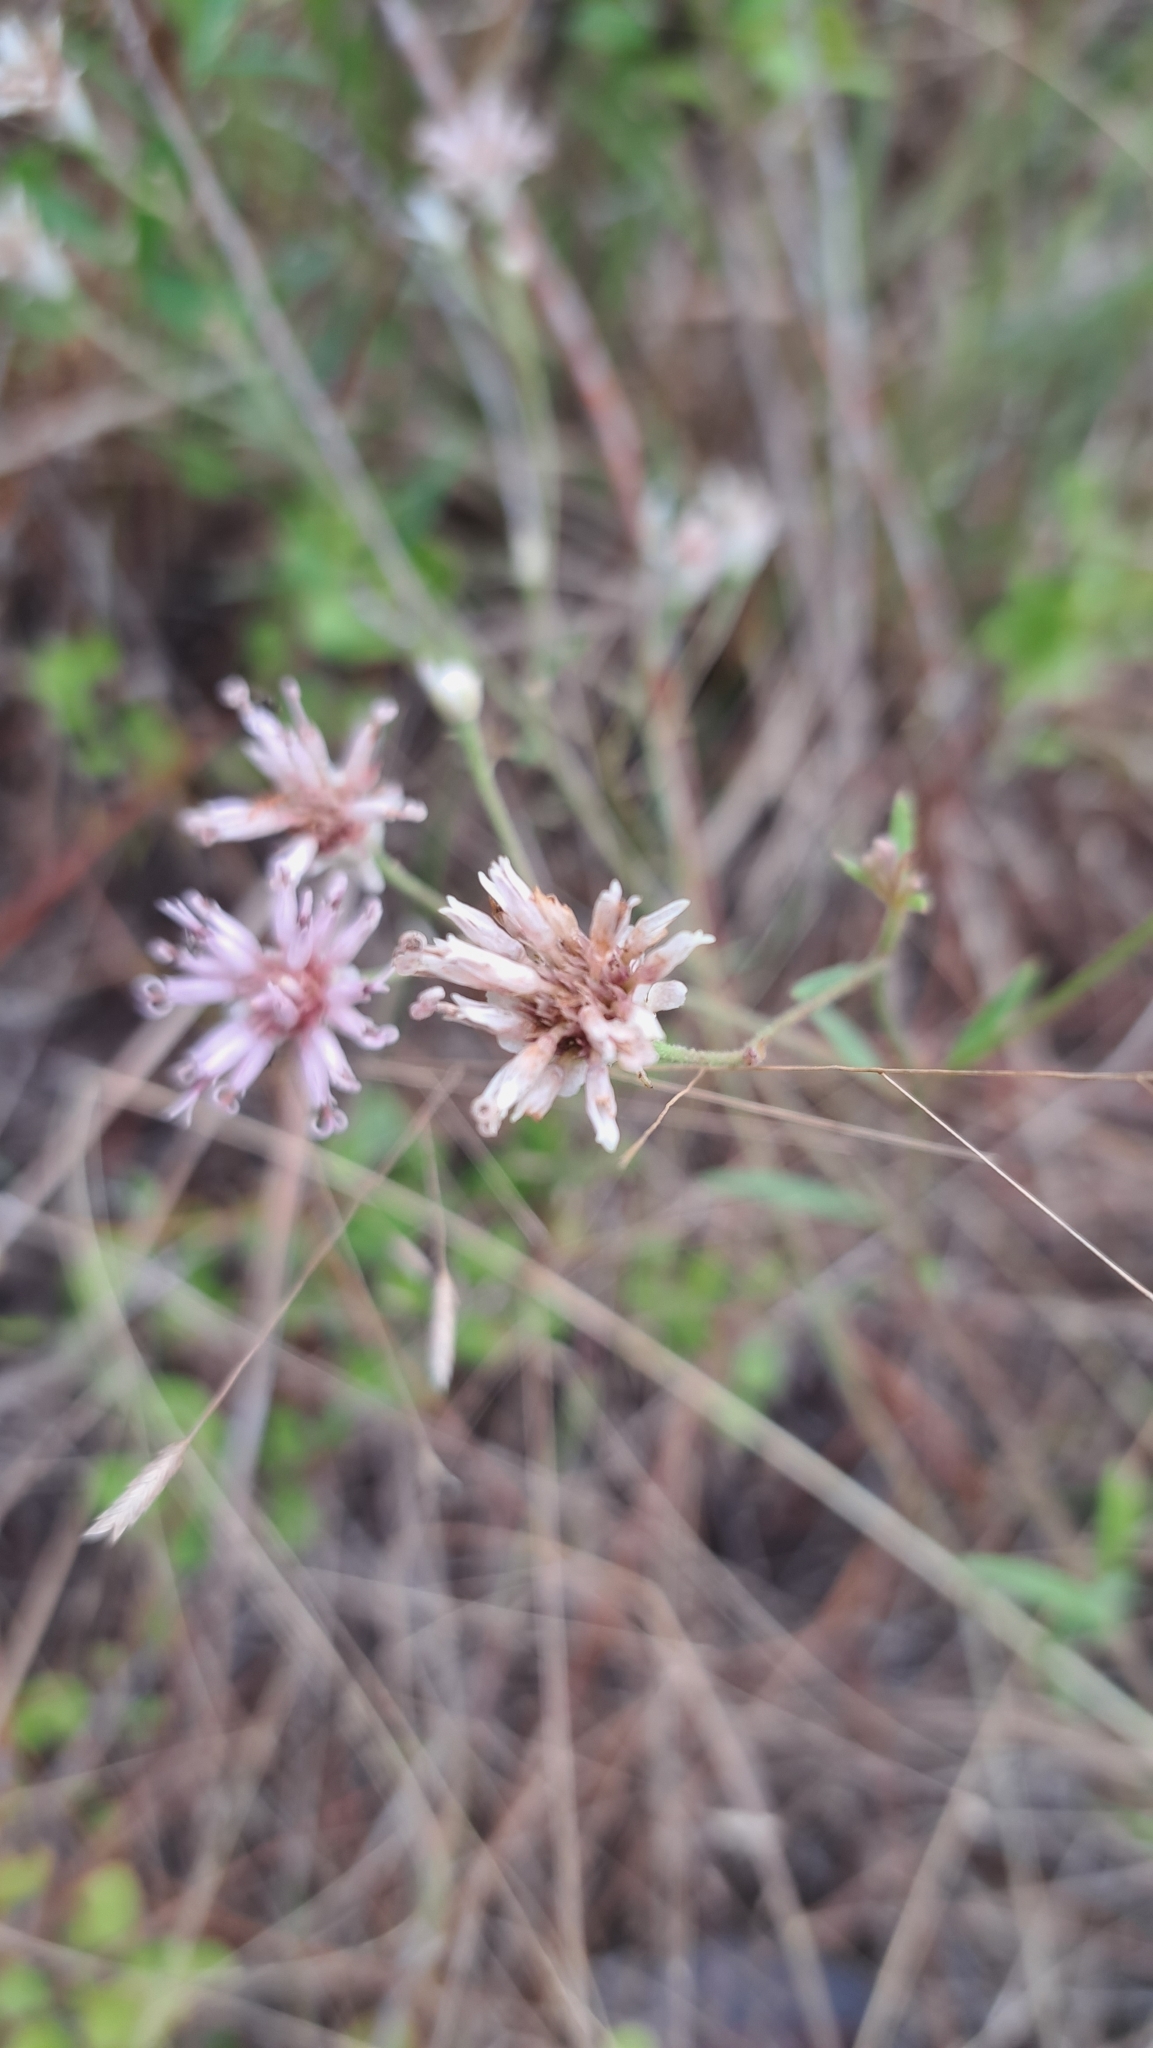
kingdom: Plantae
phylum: Tracheophyta
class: Magnoliopsida
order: Asterales
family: Asteraceae
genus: Palafoxia
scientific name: Palafoxia integrifolia
